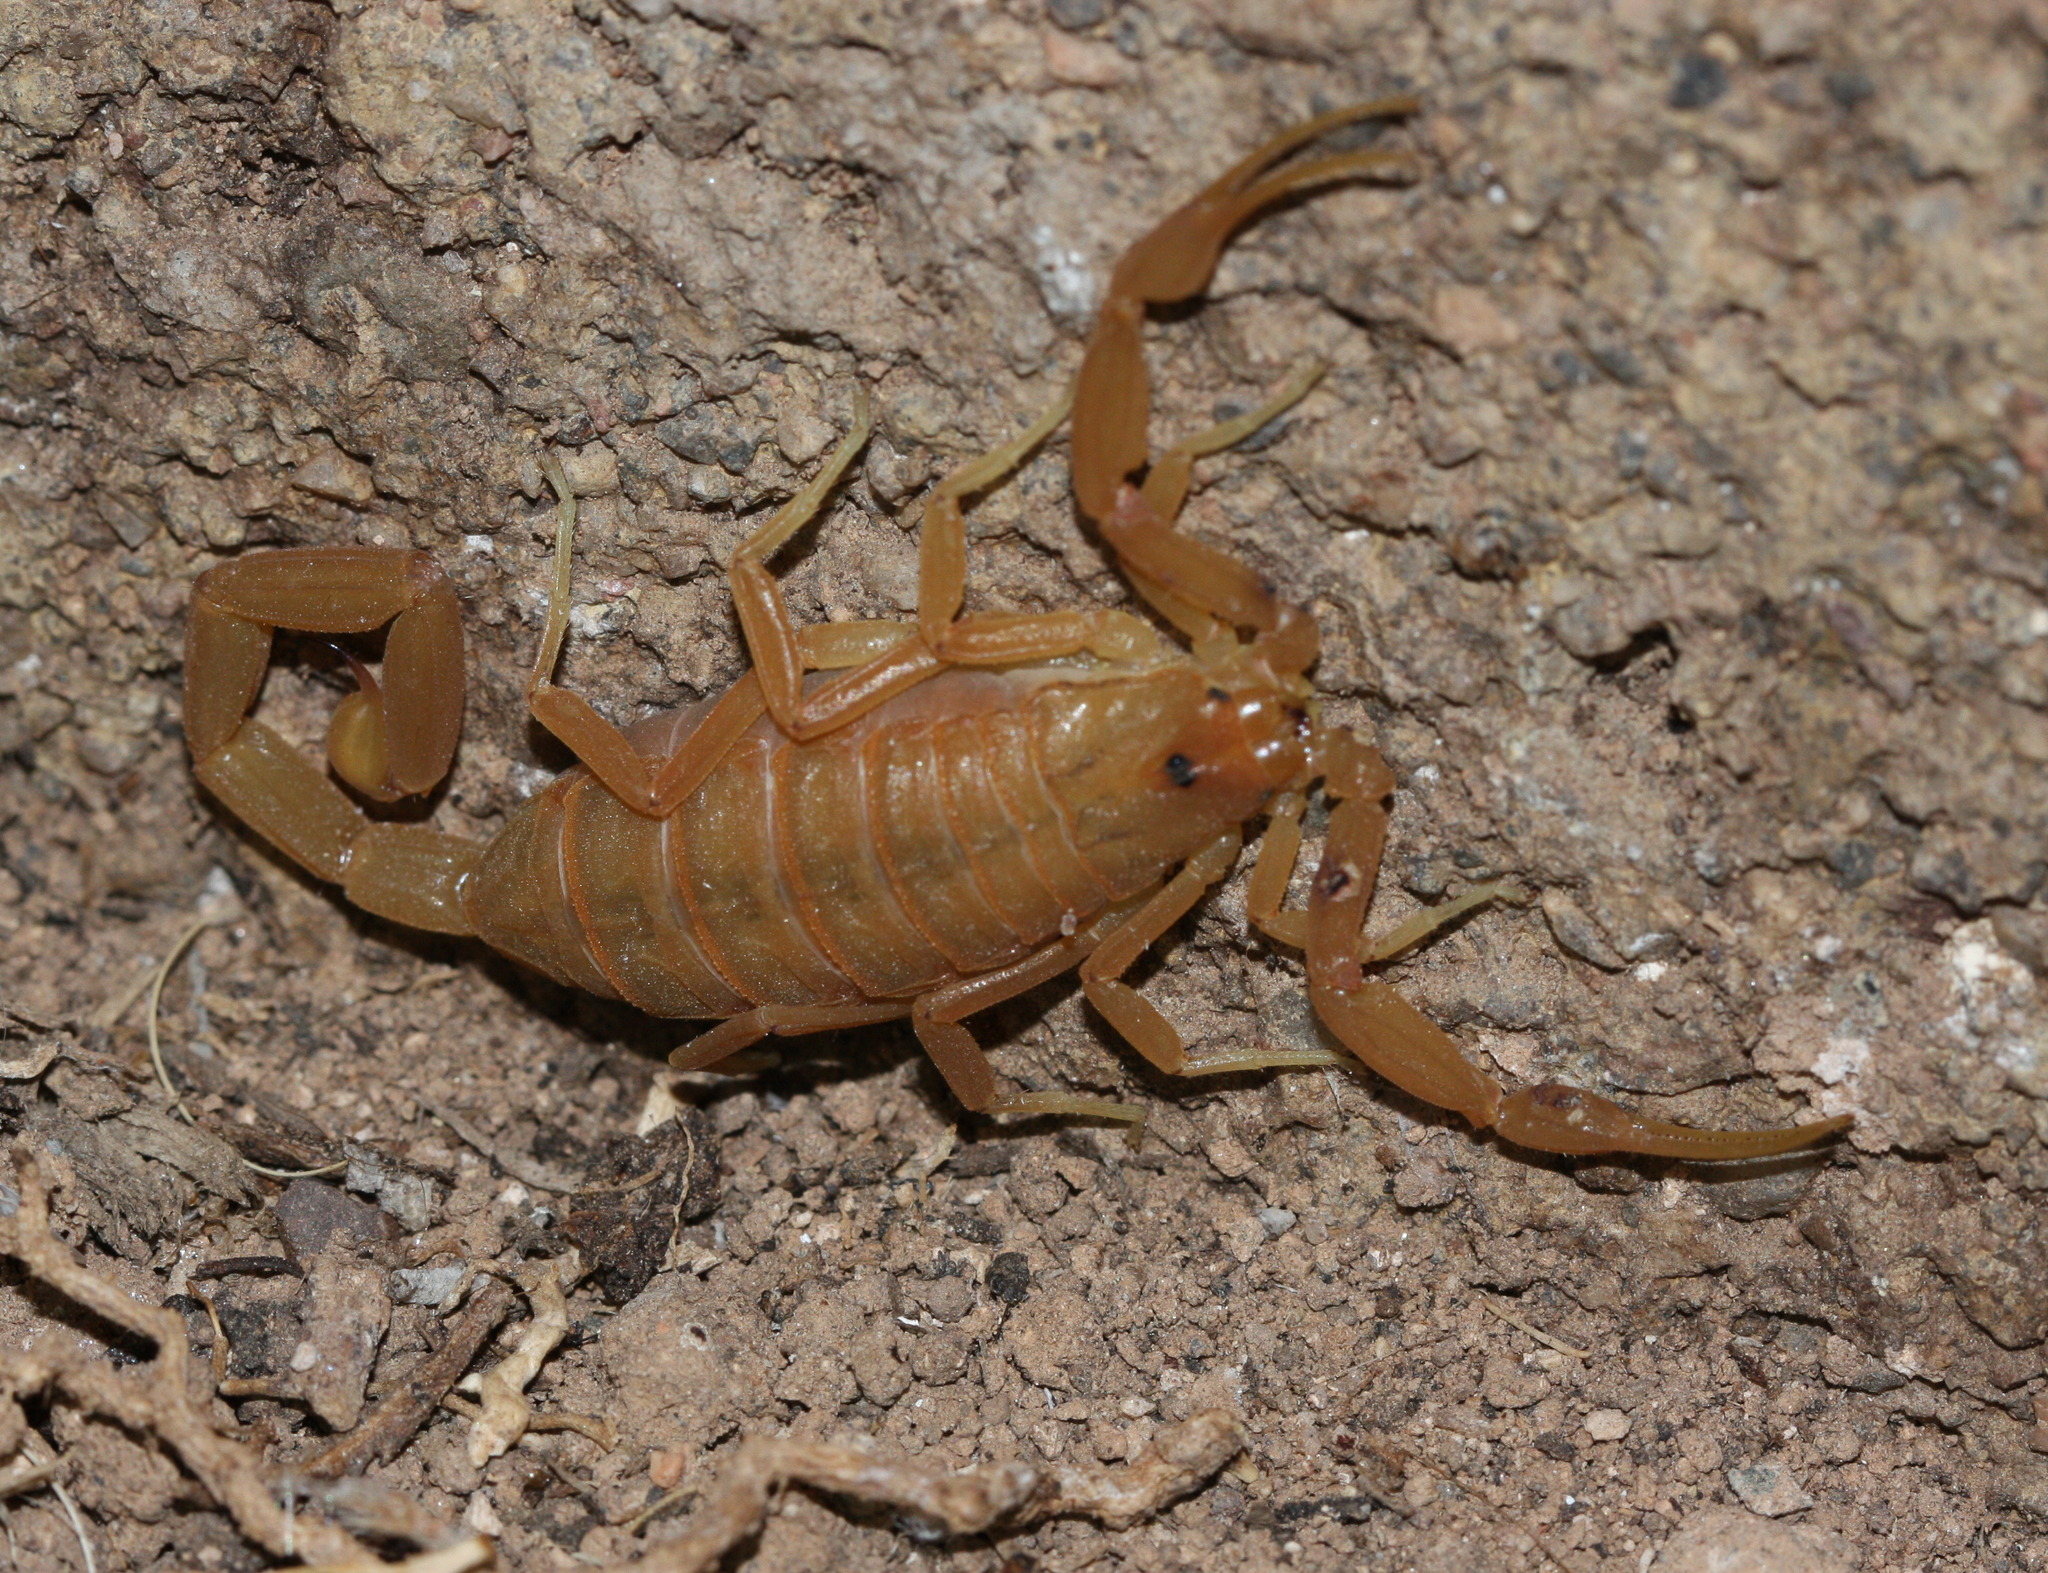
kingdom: Animalia
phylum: Arthropoda
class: Arachnida
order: Scorpiones
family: Buthidae
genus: Centruroides
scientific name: Centruroides sculpturatus
